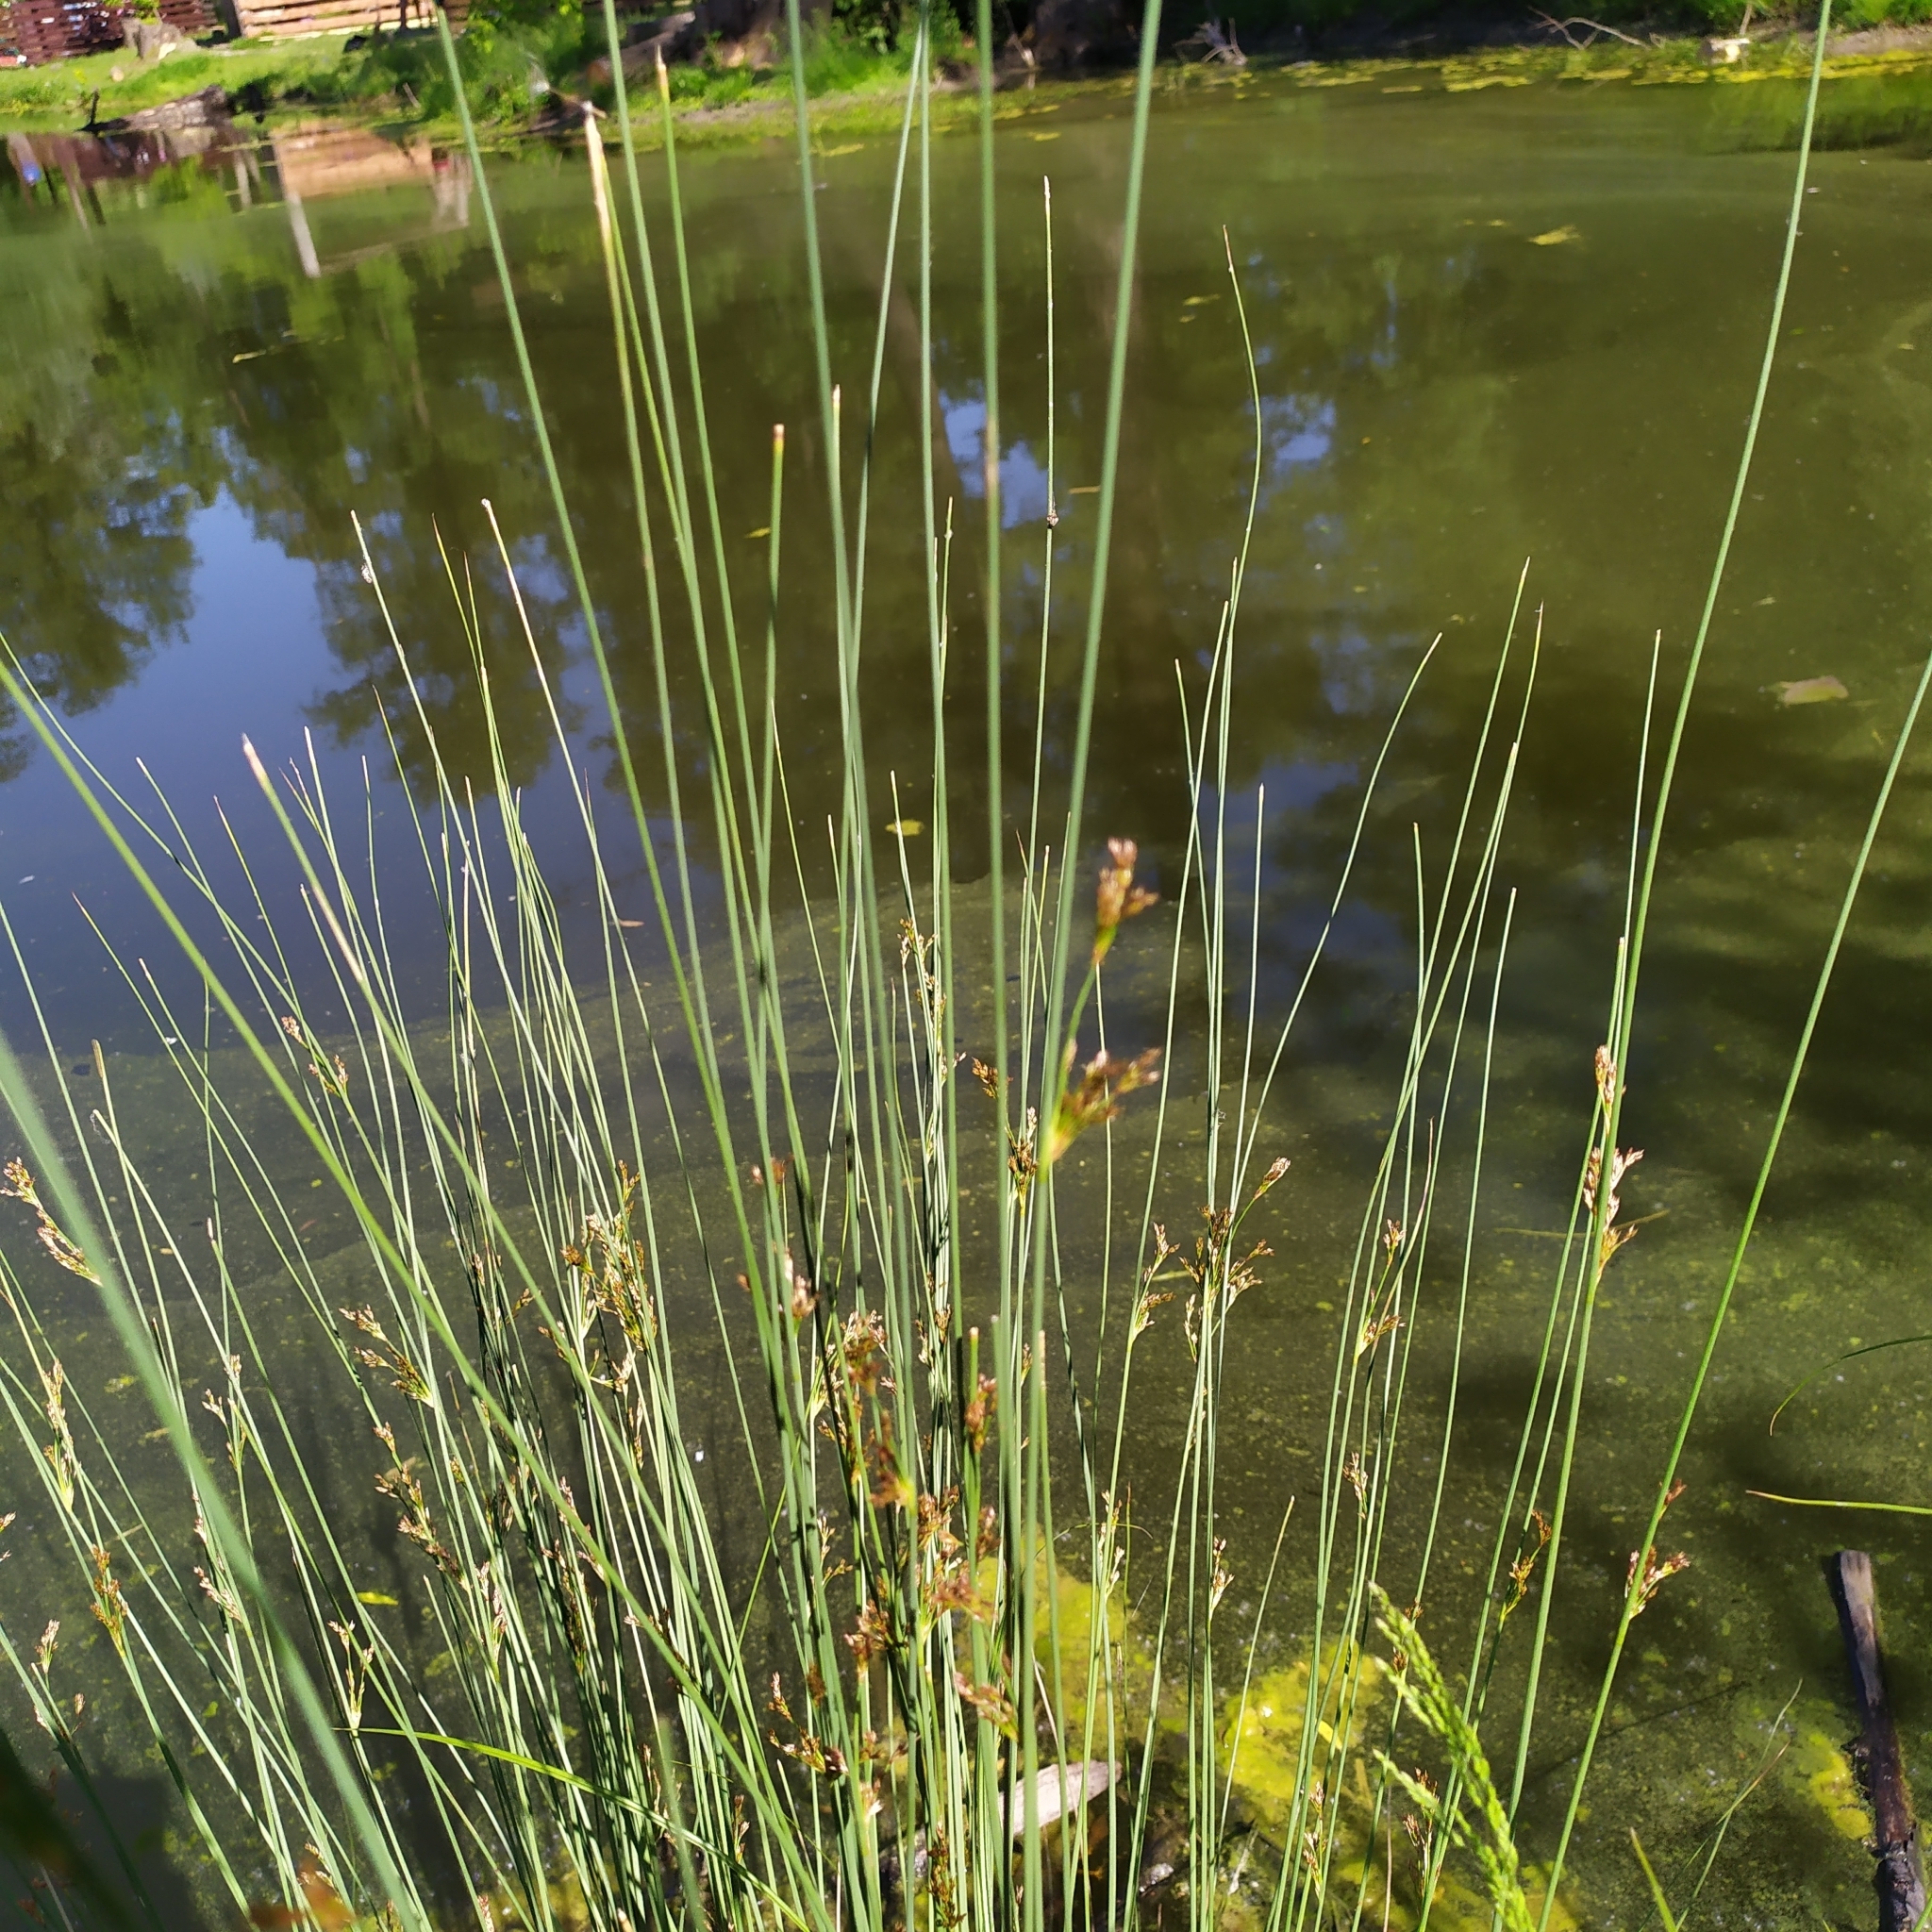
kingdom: Plantae
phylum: Tracheophyta
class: Liliopsida
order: Poales
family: Juncaceae
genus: Juncus
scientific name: Juncus inflexus
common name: Hard rush
